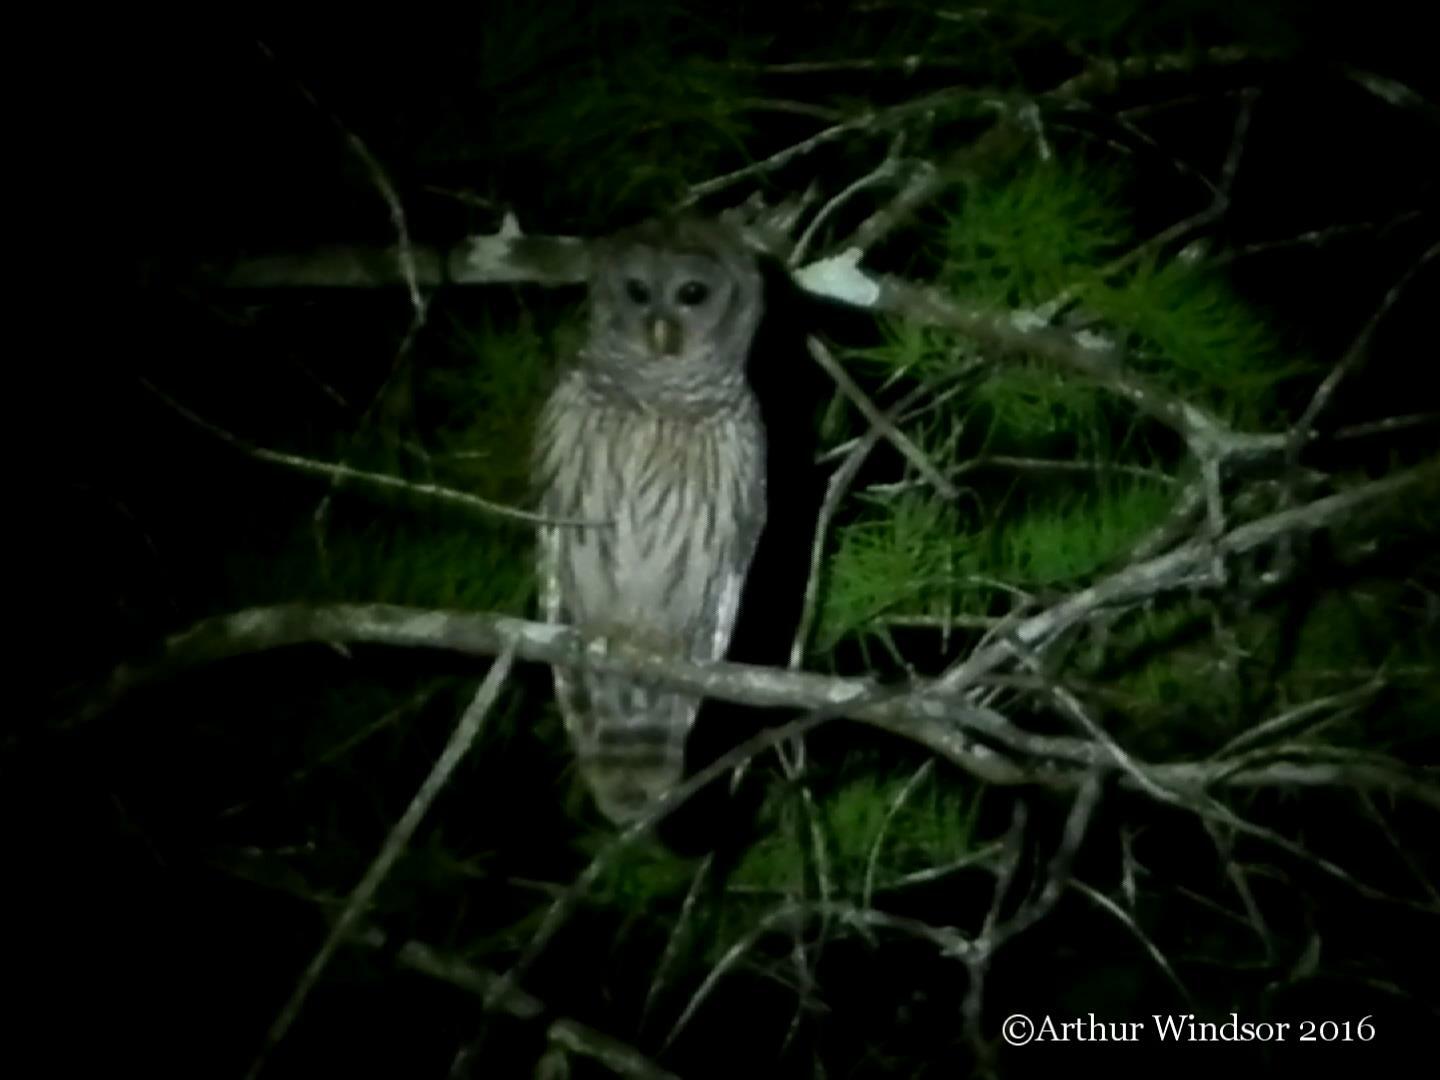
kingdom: Animalia
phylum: Chordata
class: Aves
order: Strigiformes
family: Strigidae
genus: Strix
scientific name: Strix varia
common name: Barred owl
